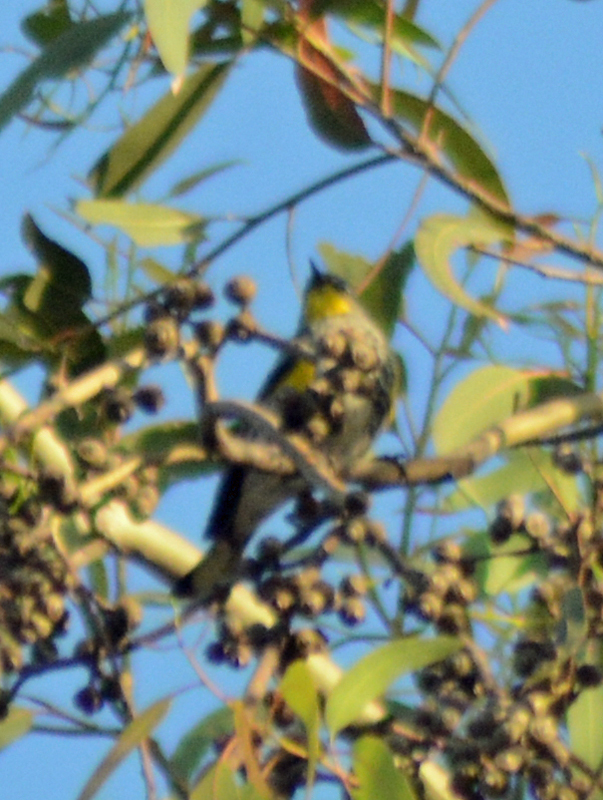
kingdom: Animalia
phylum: Chordata
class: Aves
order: Passeriformes
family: Parulidae
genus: Setophaga
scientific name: Setophaga coronata
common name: Myrtle warbler
